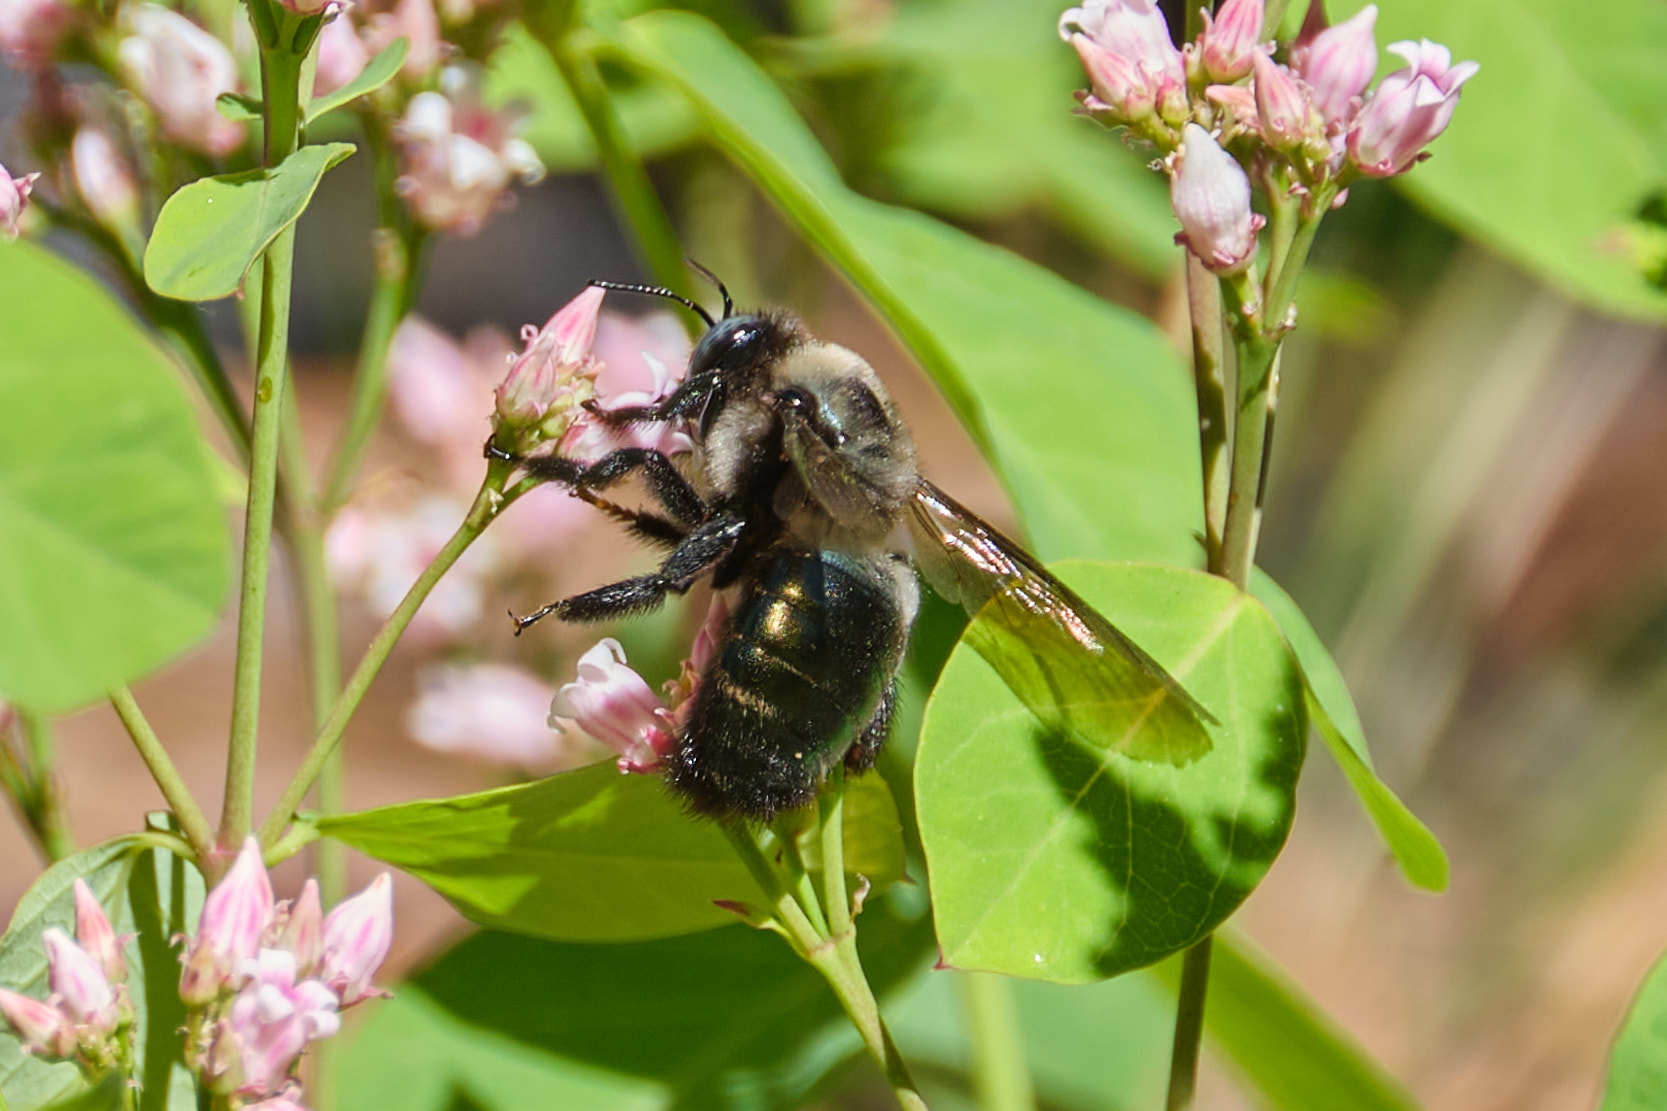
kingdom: Animalia
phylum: Arthropoda
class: Insecta
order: Hymenoptera
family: Apidae
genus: Xylocopa
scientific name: Xylocopa californica
